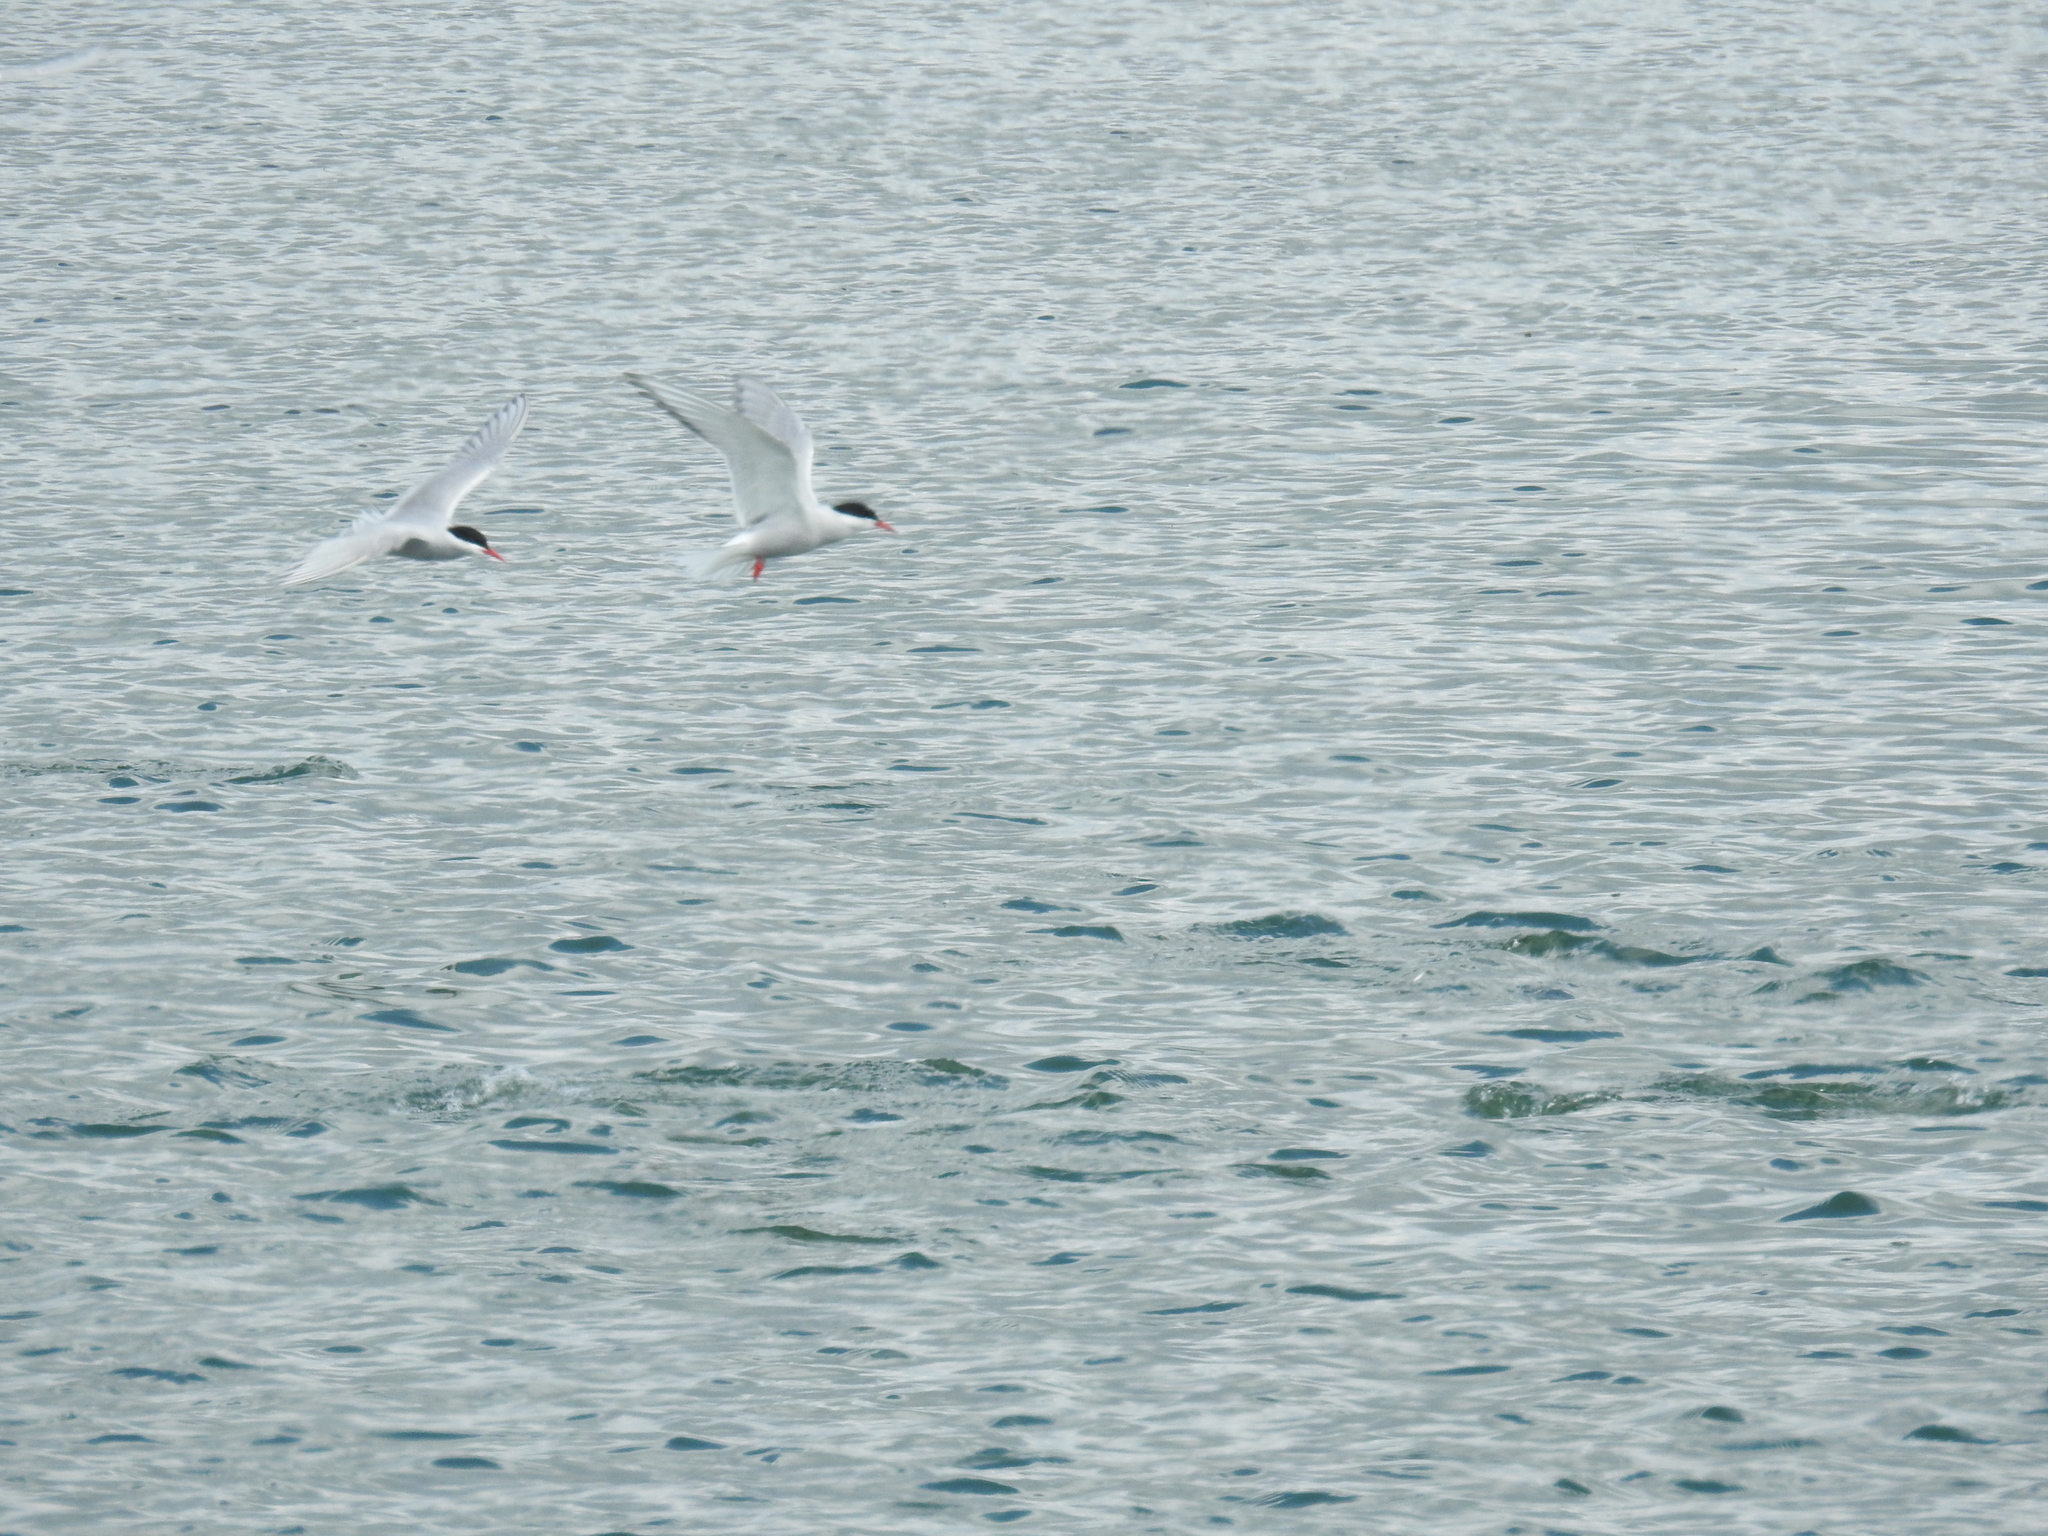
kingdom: Animalia
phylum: Chordata
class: Aves
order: Charadriiformes
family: Laridae
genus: Sterna
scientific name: Sterna paradisaea
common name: Arctic tern
